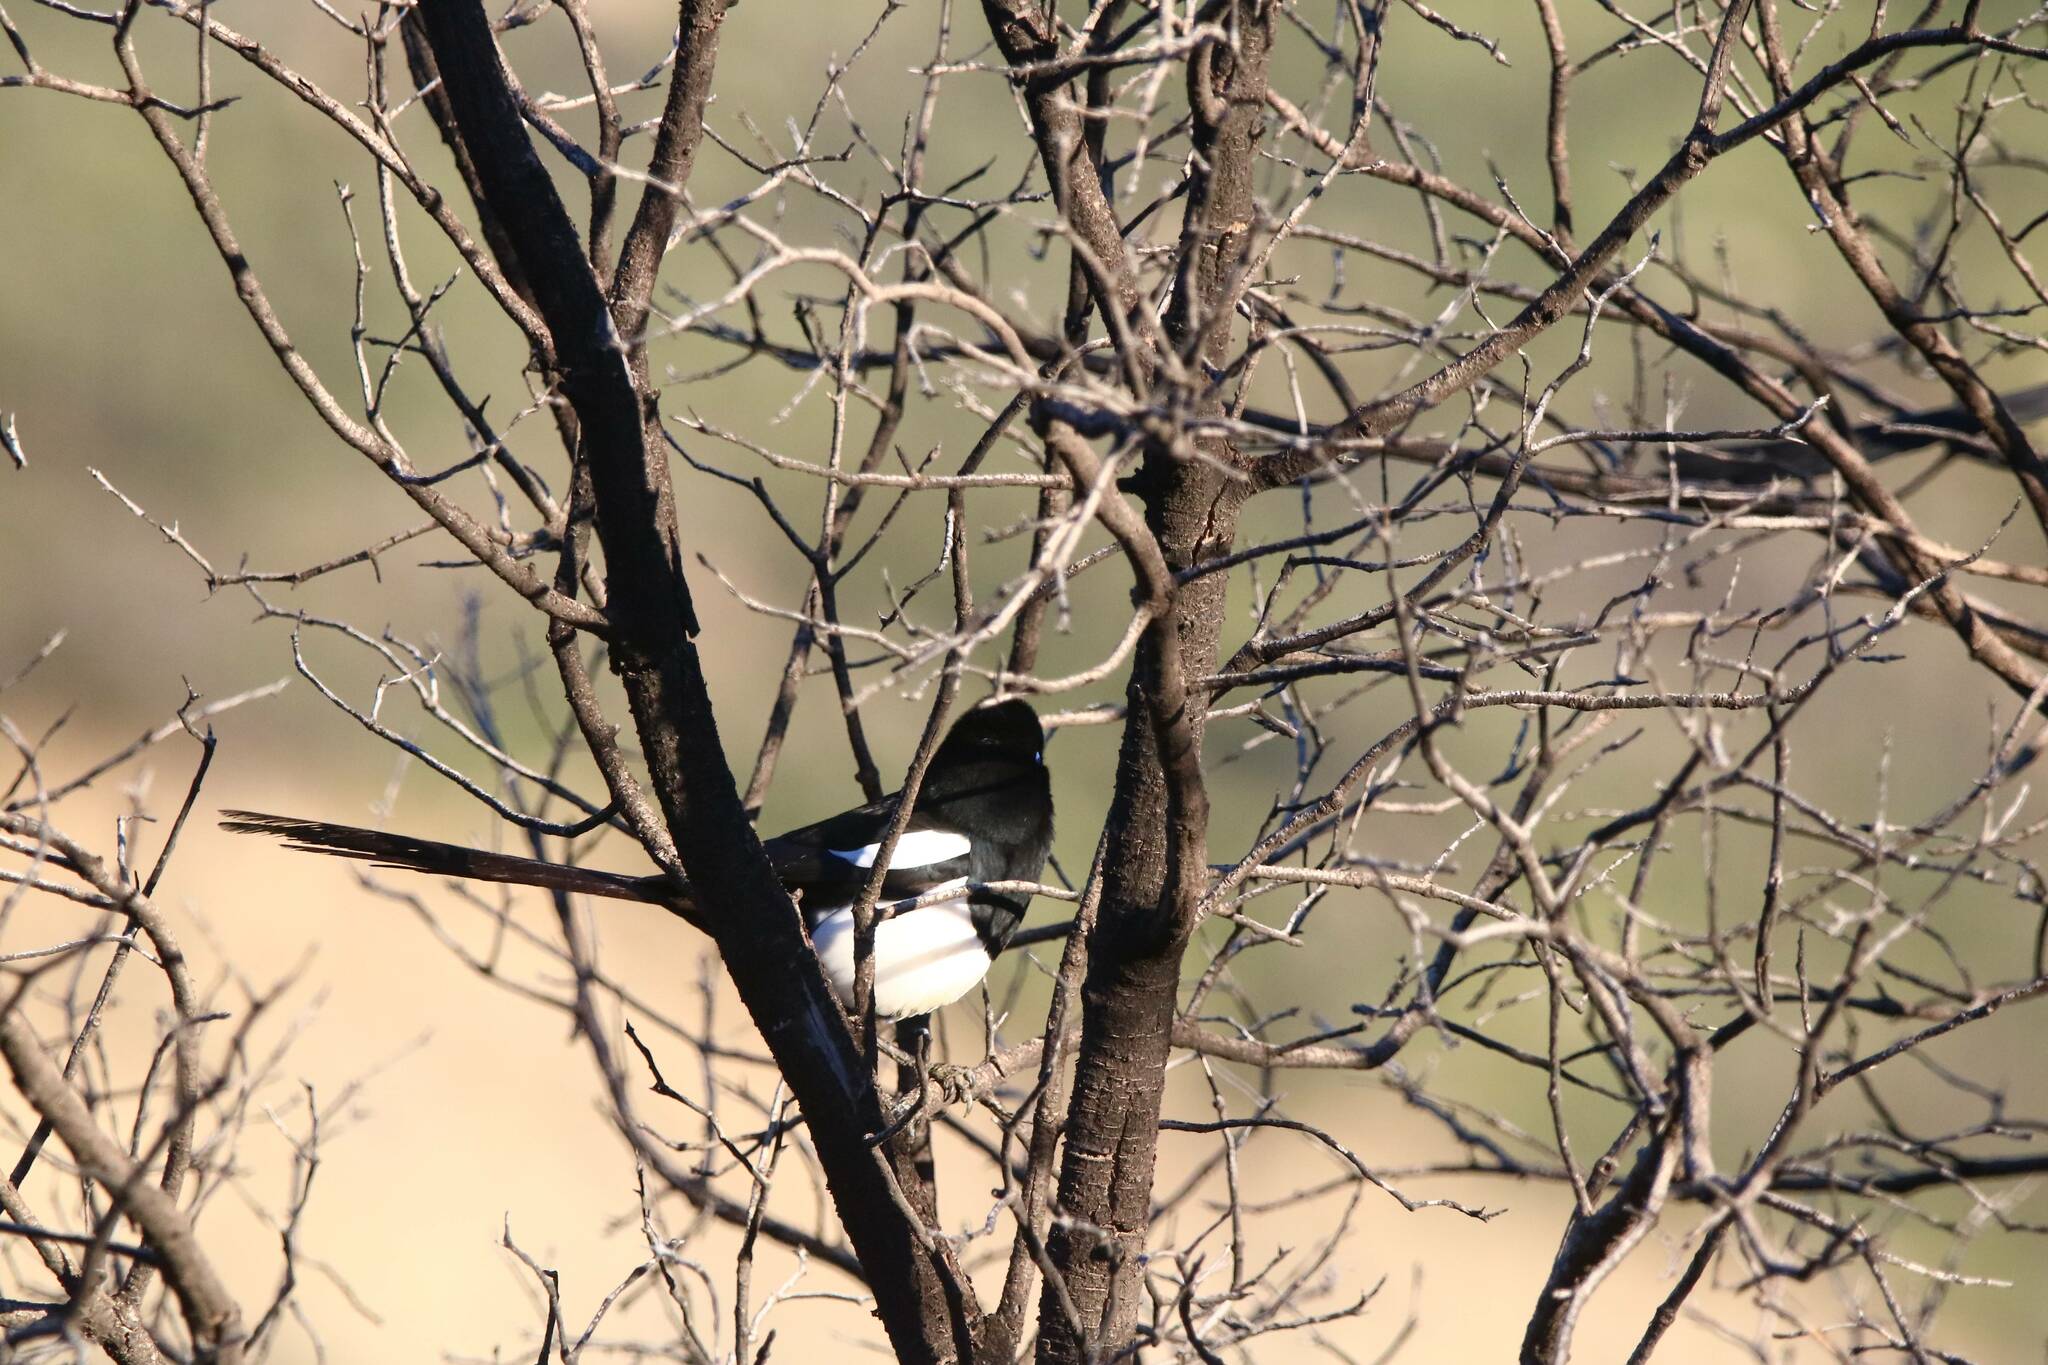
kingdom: Animalia
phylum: Chordata
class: Aves
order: Passeriformes
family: Corvidae
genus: Pica
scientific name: Pica mauritanica
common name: Maghreb magpie
